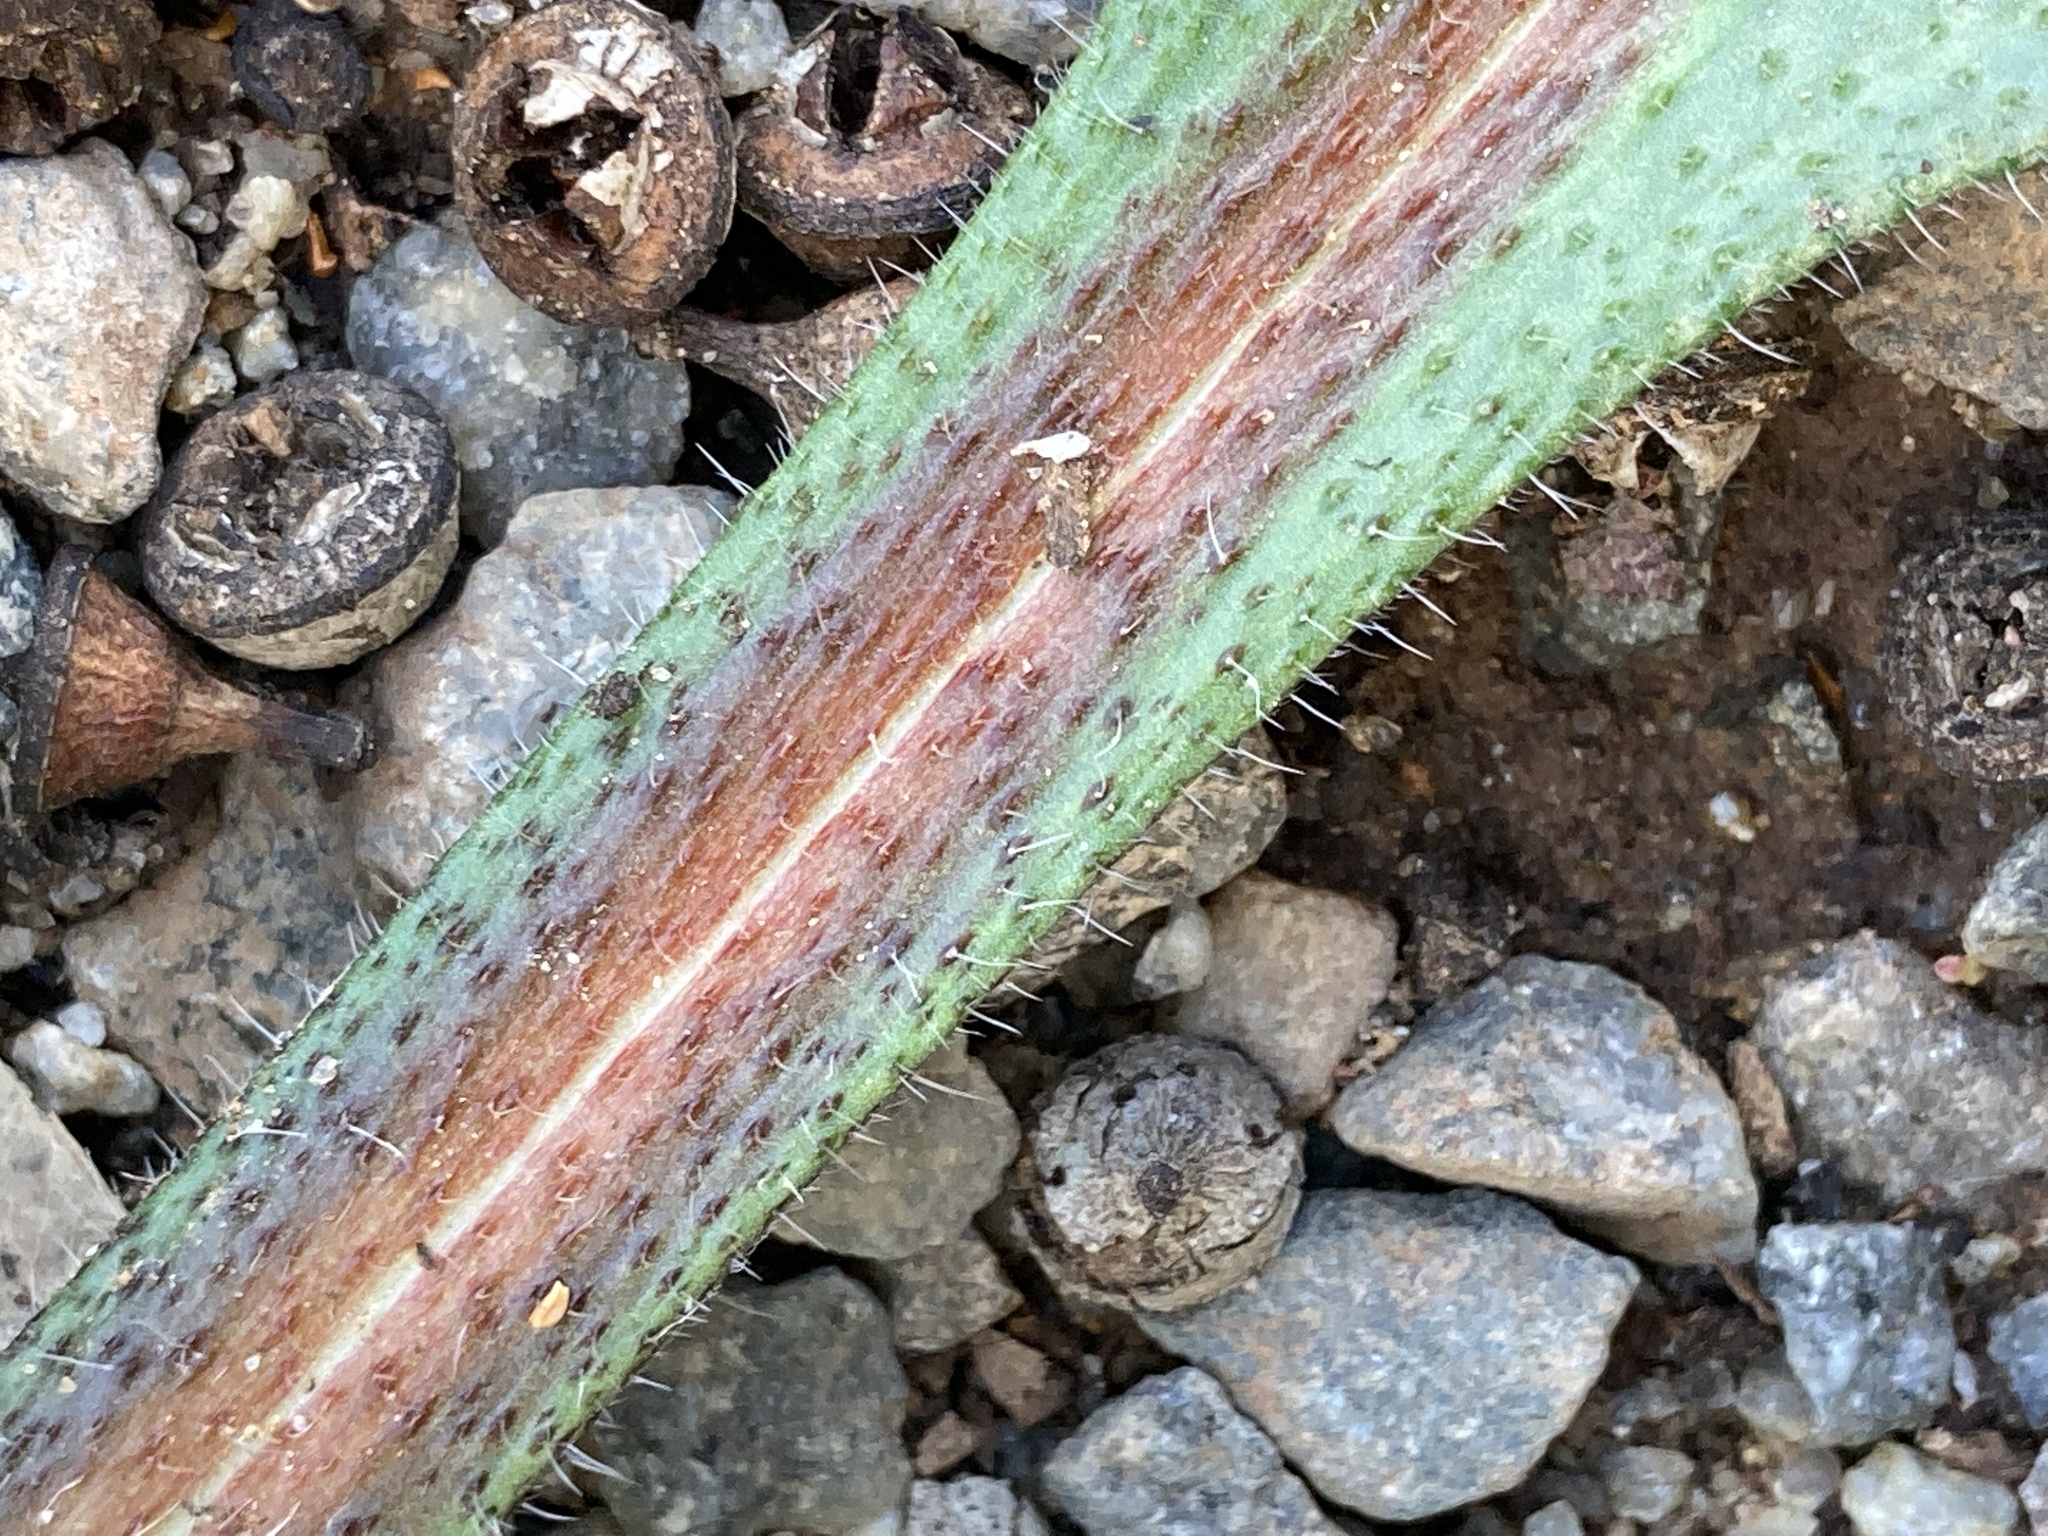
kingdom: Plantae
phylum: Tracheophyta
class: Magnoliopsida
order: Boraginales
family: Boraginaceae
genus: Echium
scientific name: Echium plantagineum
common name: Purple viper's-bugloss
